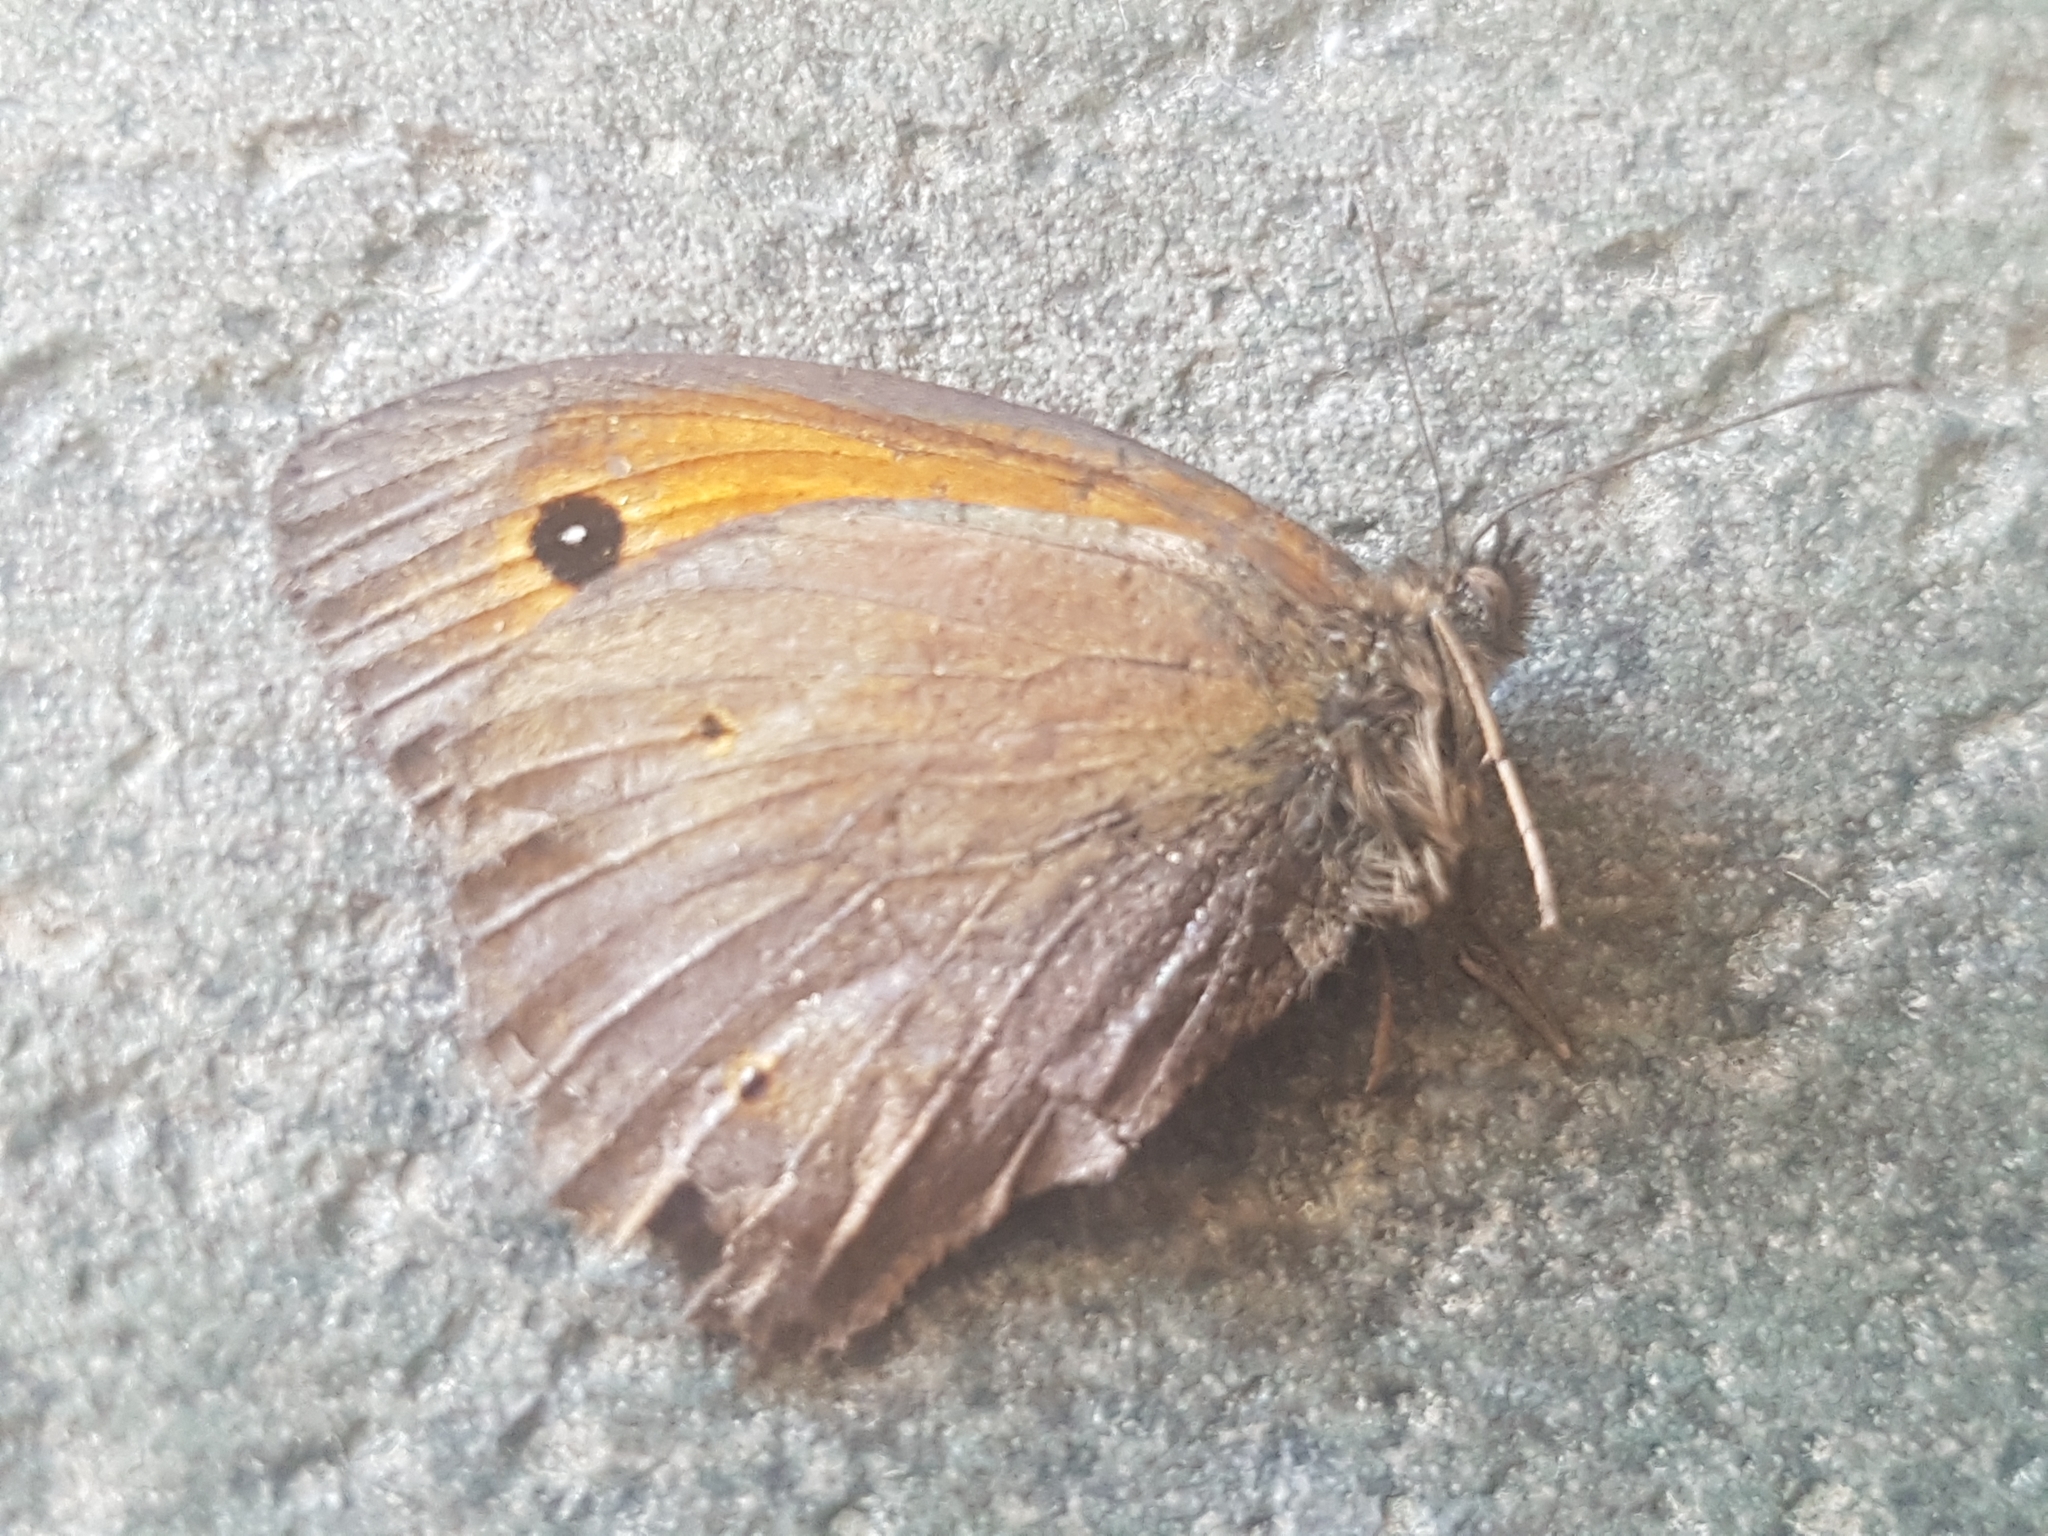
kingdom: Animalia
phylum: Arthropoda
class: Insecta
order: Lepidoptera
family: Nymphalidae
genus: Maniola
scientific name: Maniola jurtina
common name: Meadow brown
